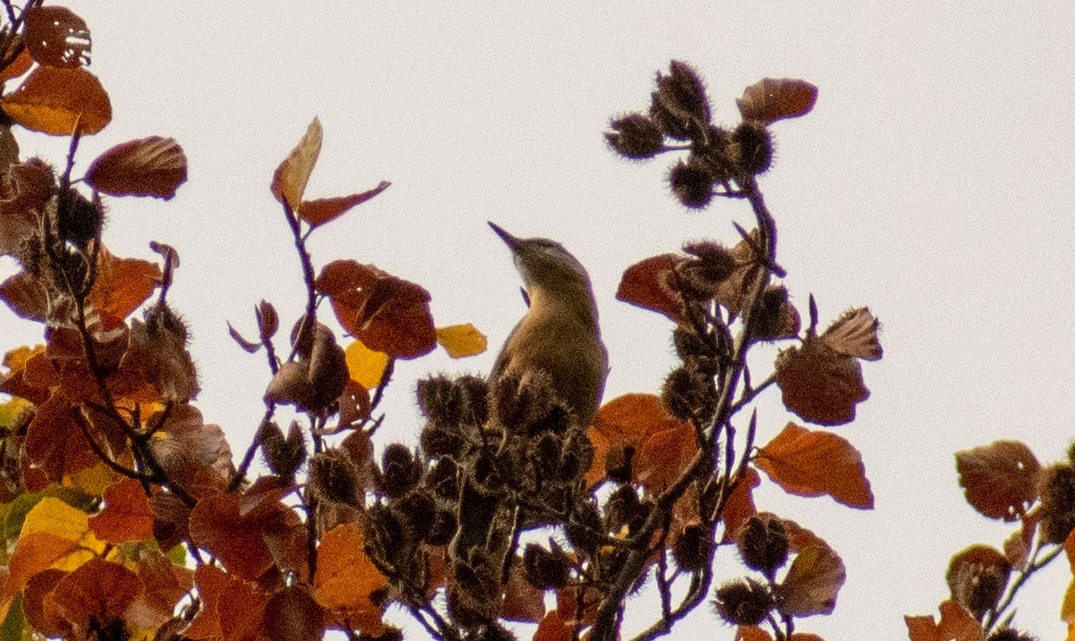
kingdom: Animalia
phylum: Chordata
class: Aves
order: Passeriformes
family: Sittidae
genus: Sitta
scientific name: Sitta europaea
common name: Eurasian nuthatch
